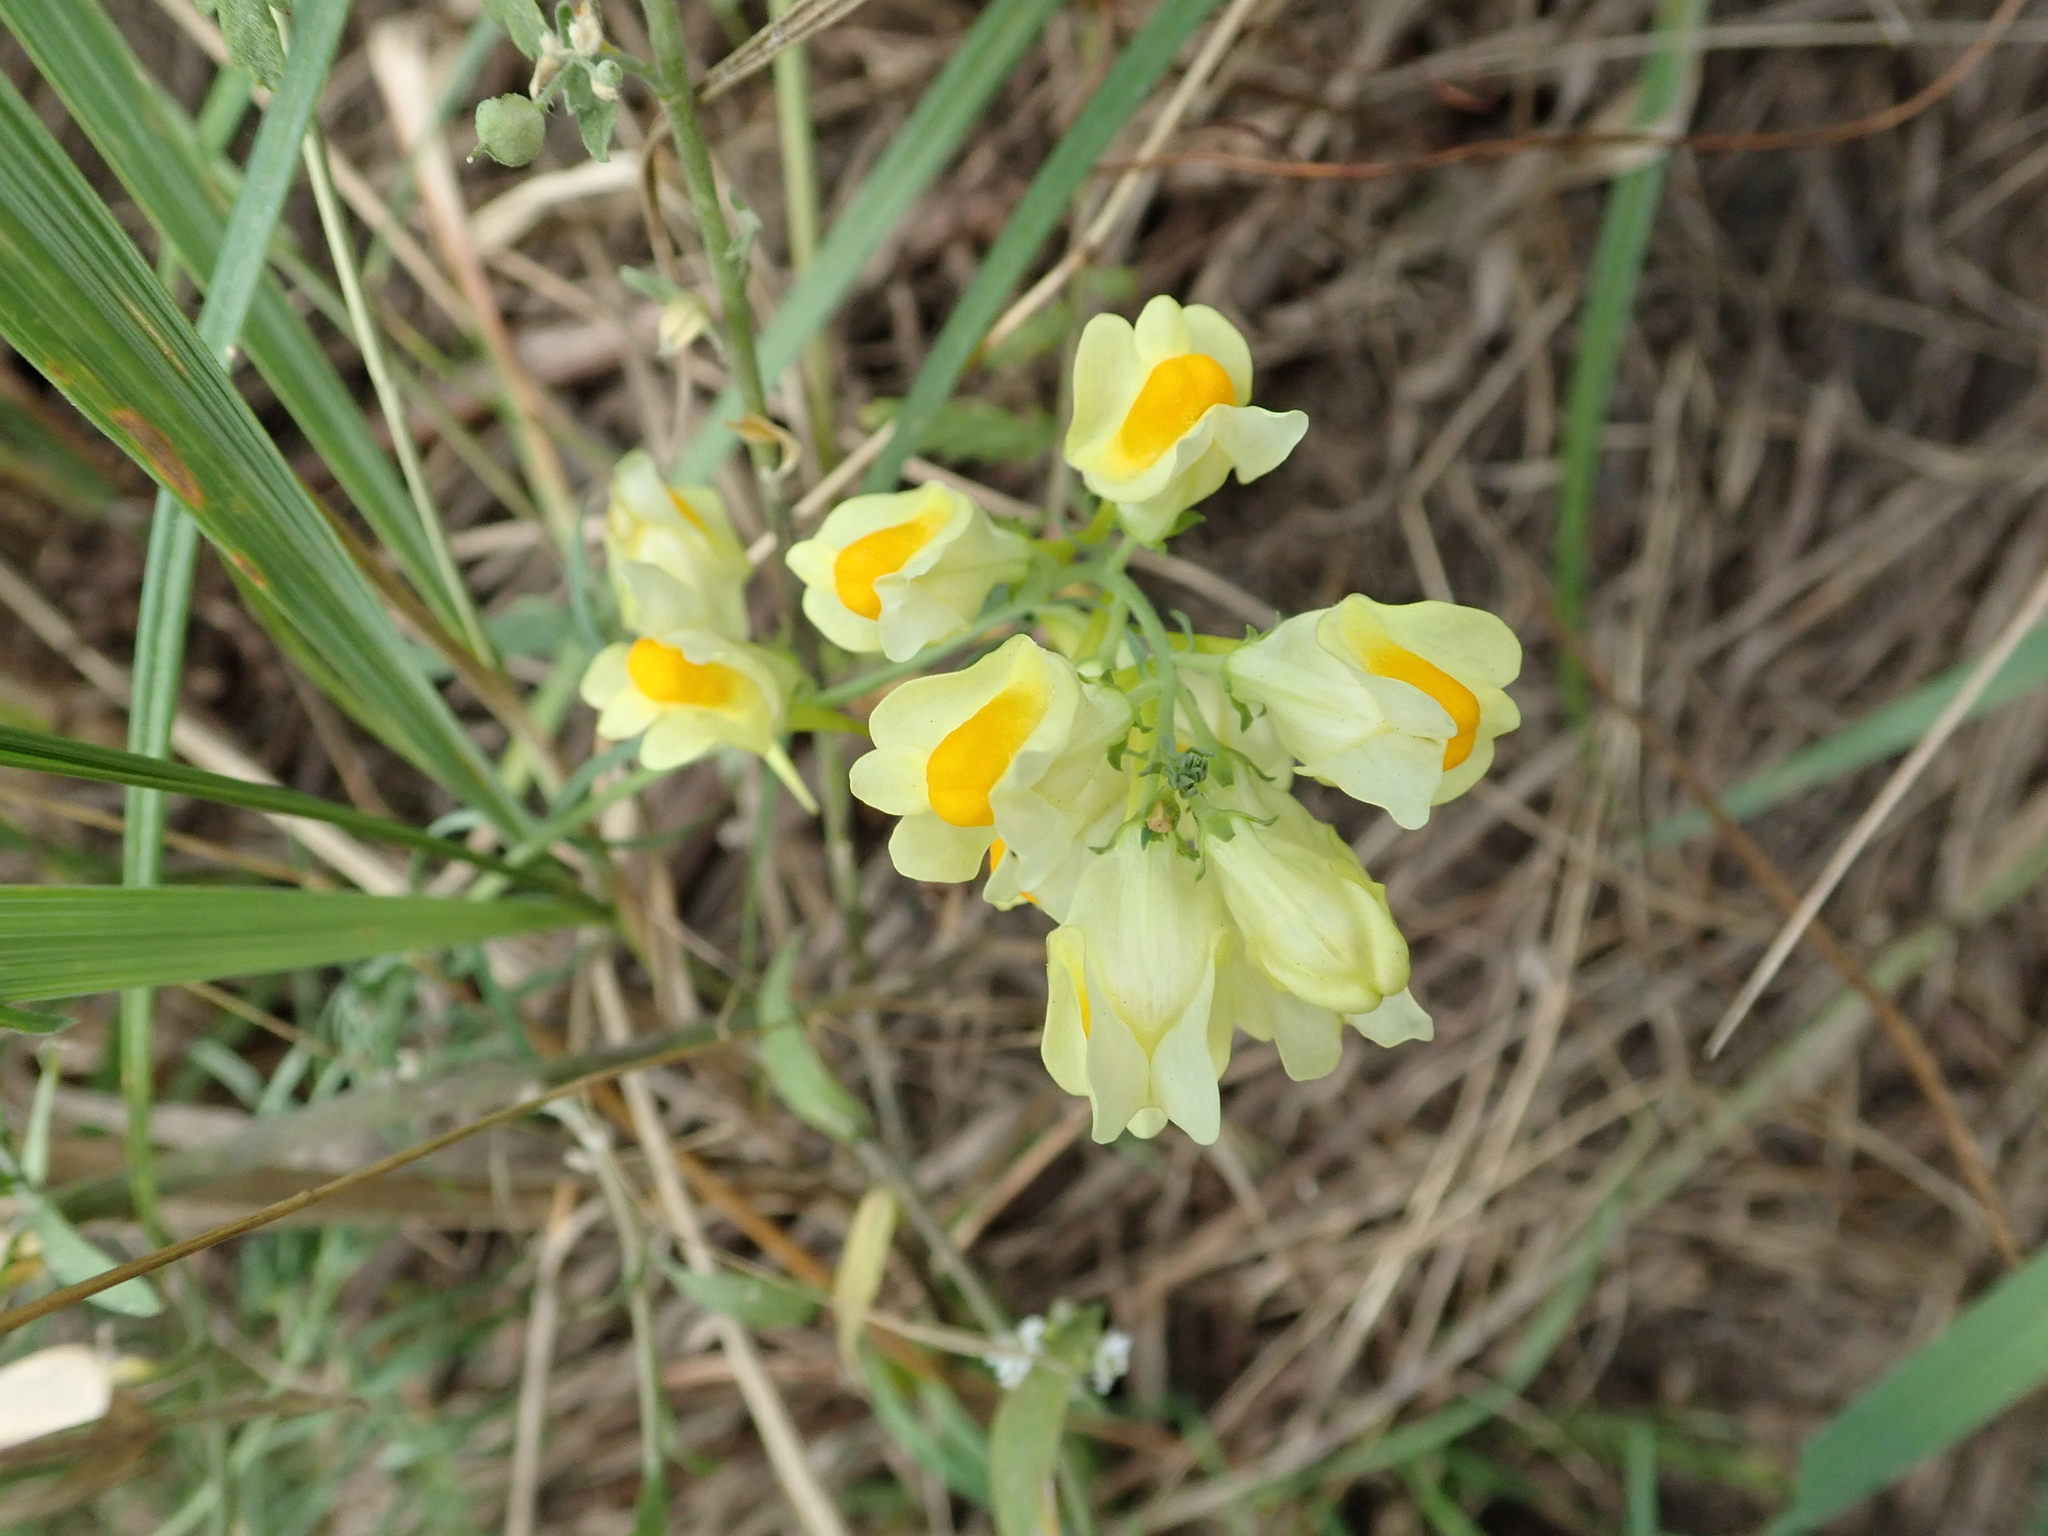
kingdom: Plantae
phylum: Tracheophyta
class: Magnoliopsida
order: Lamiales
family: Plantaginaceae
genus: Linaria
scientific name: Linaria vulgaris
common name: Butter and eggs
